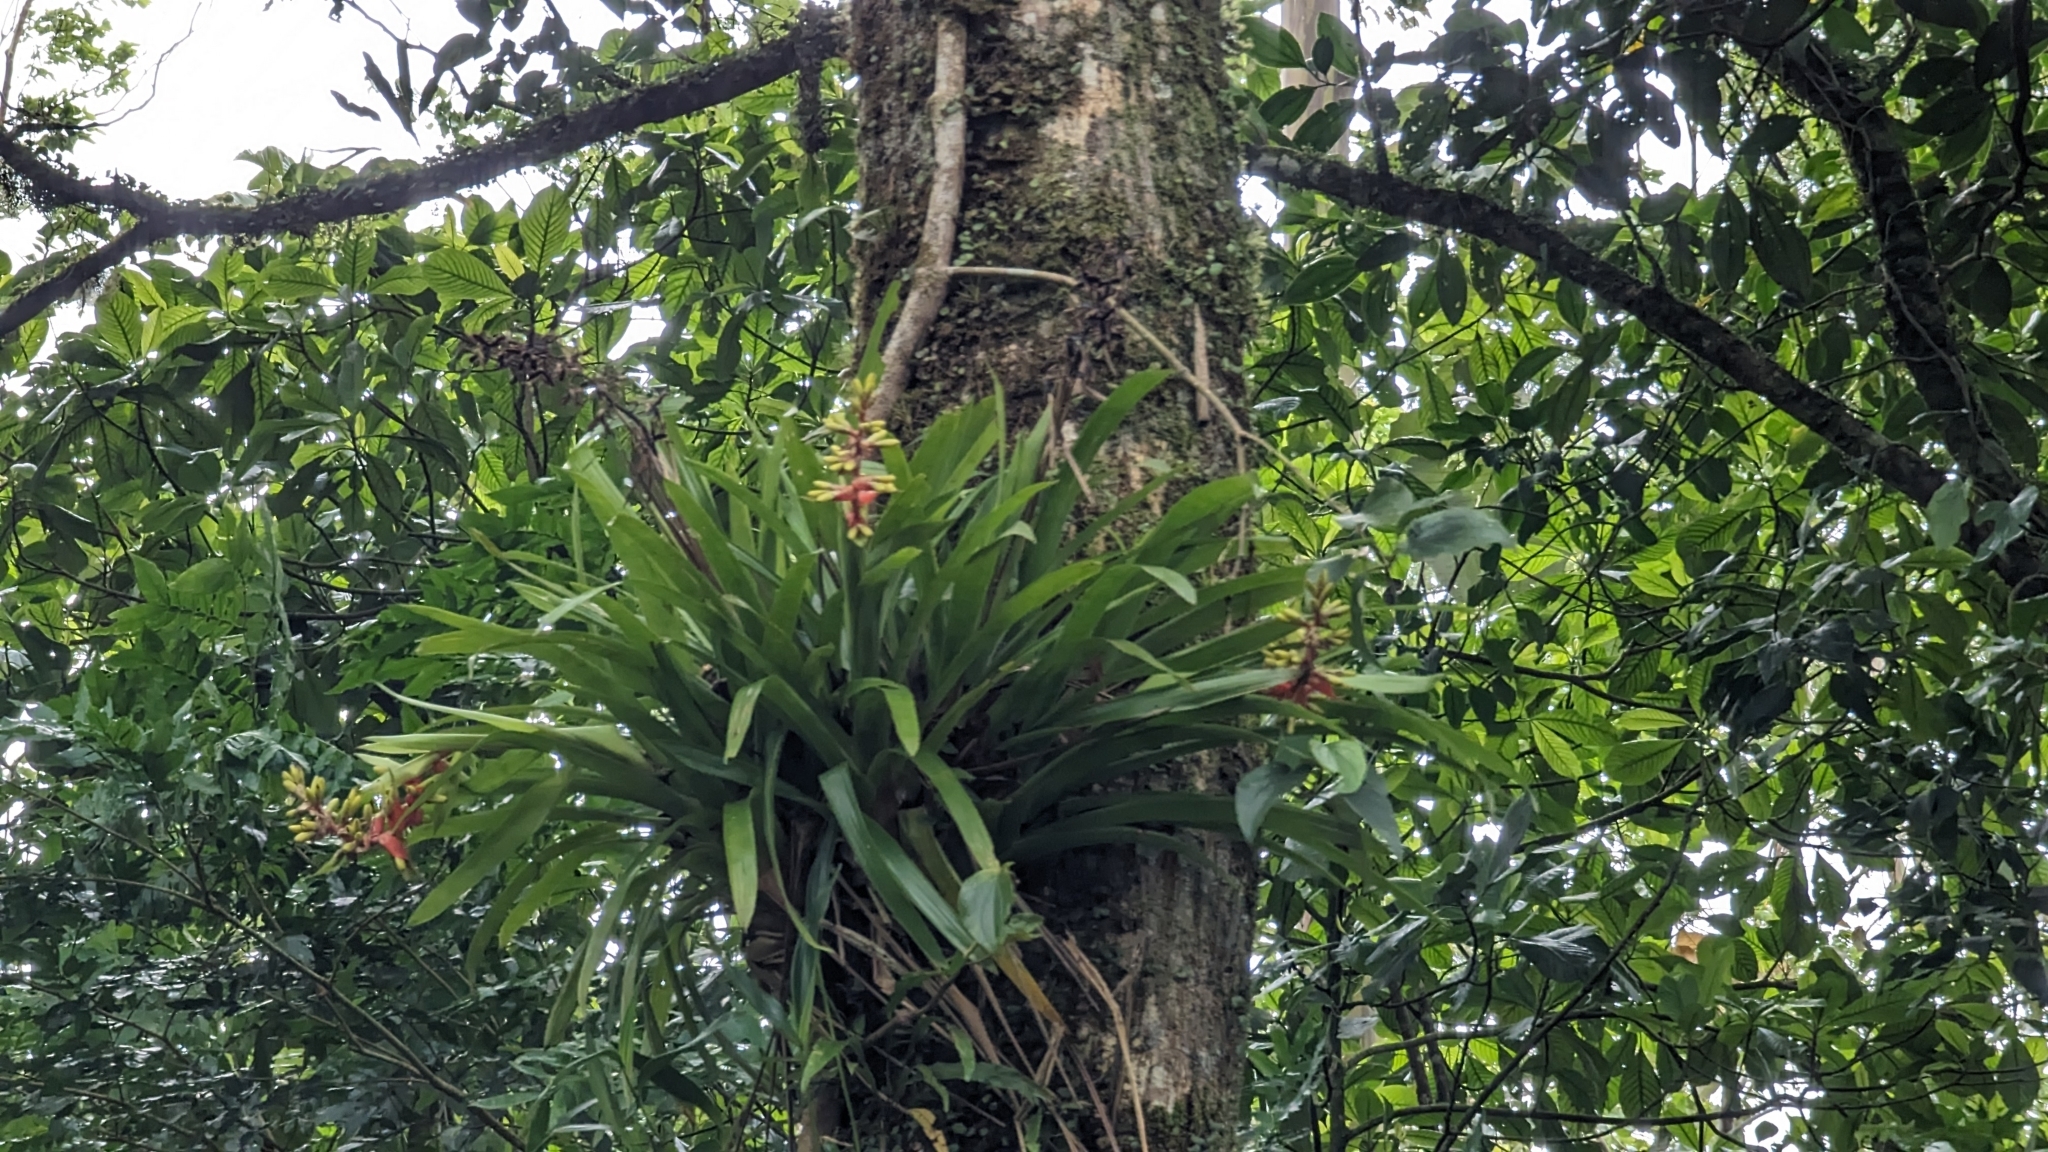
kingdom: Plantae
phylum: Tracheophyta
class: Liliopsida
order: Poales
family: Bromeliaceae
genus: Guzmania
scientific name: Guzmania donnellsmithii
